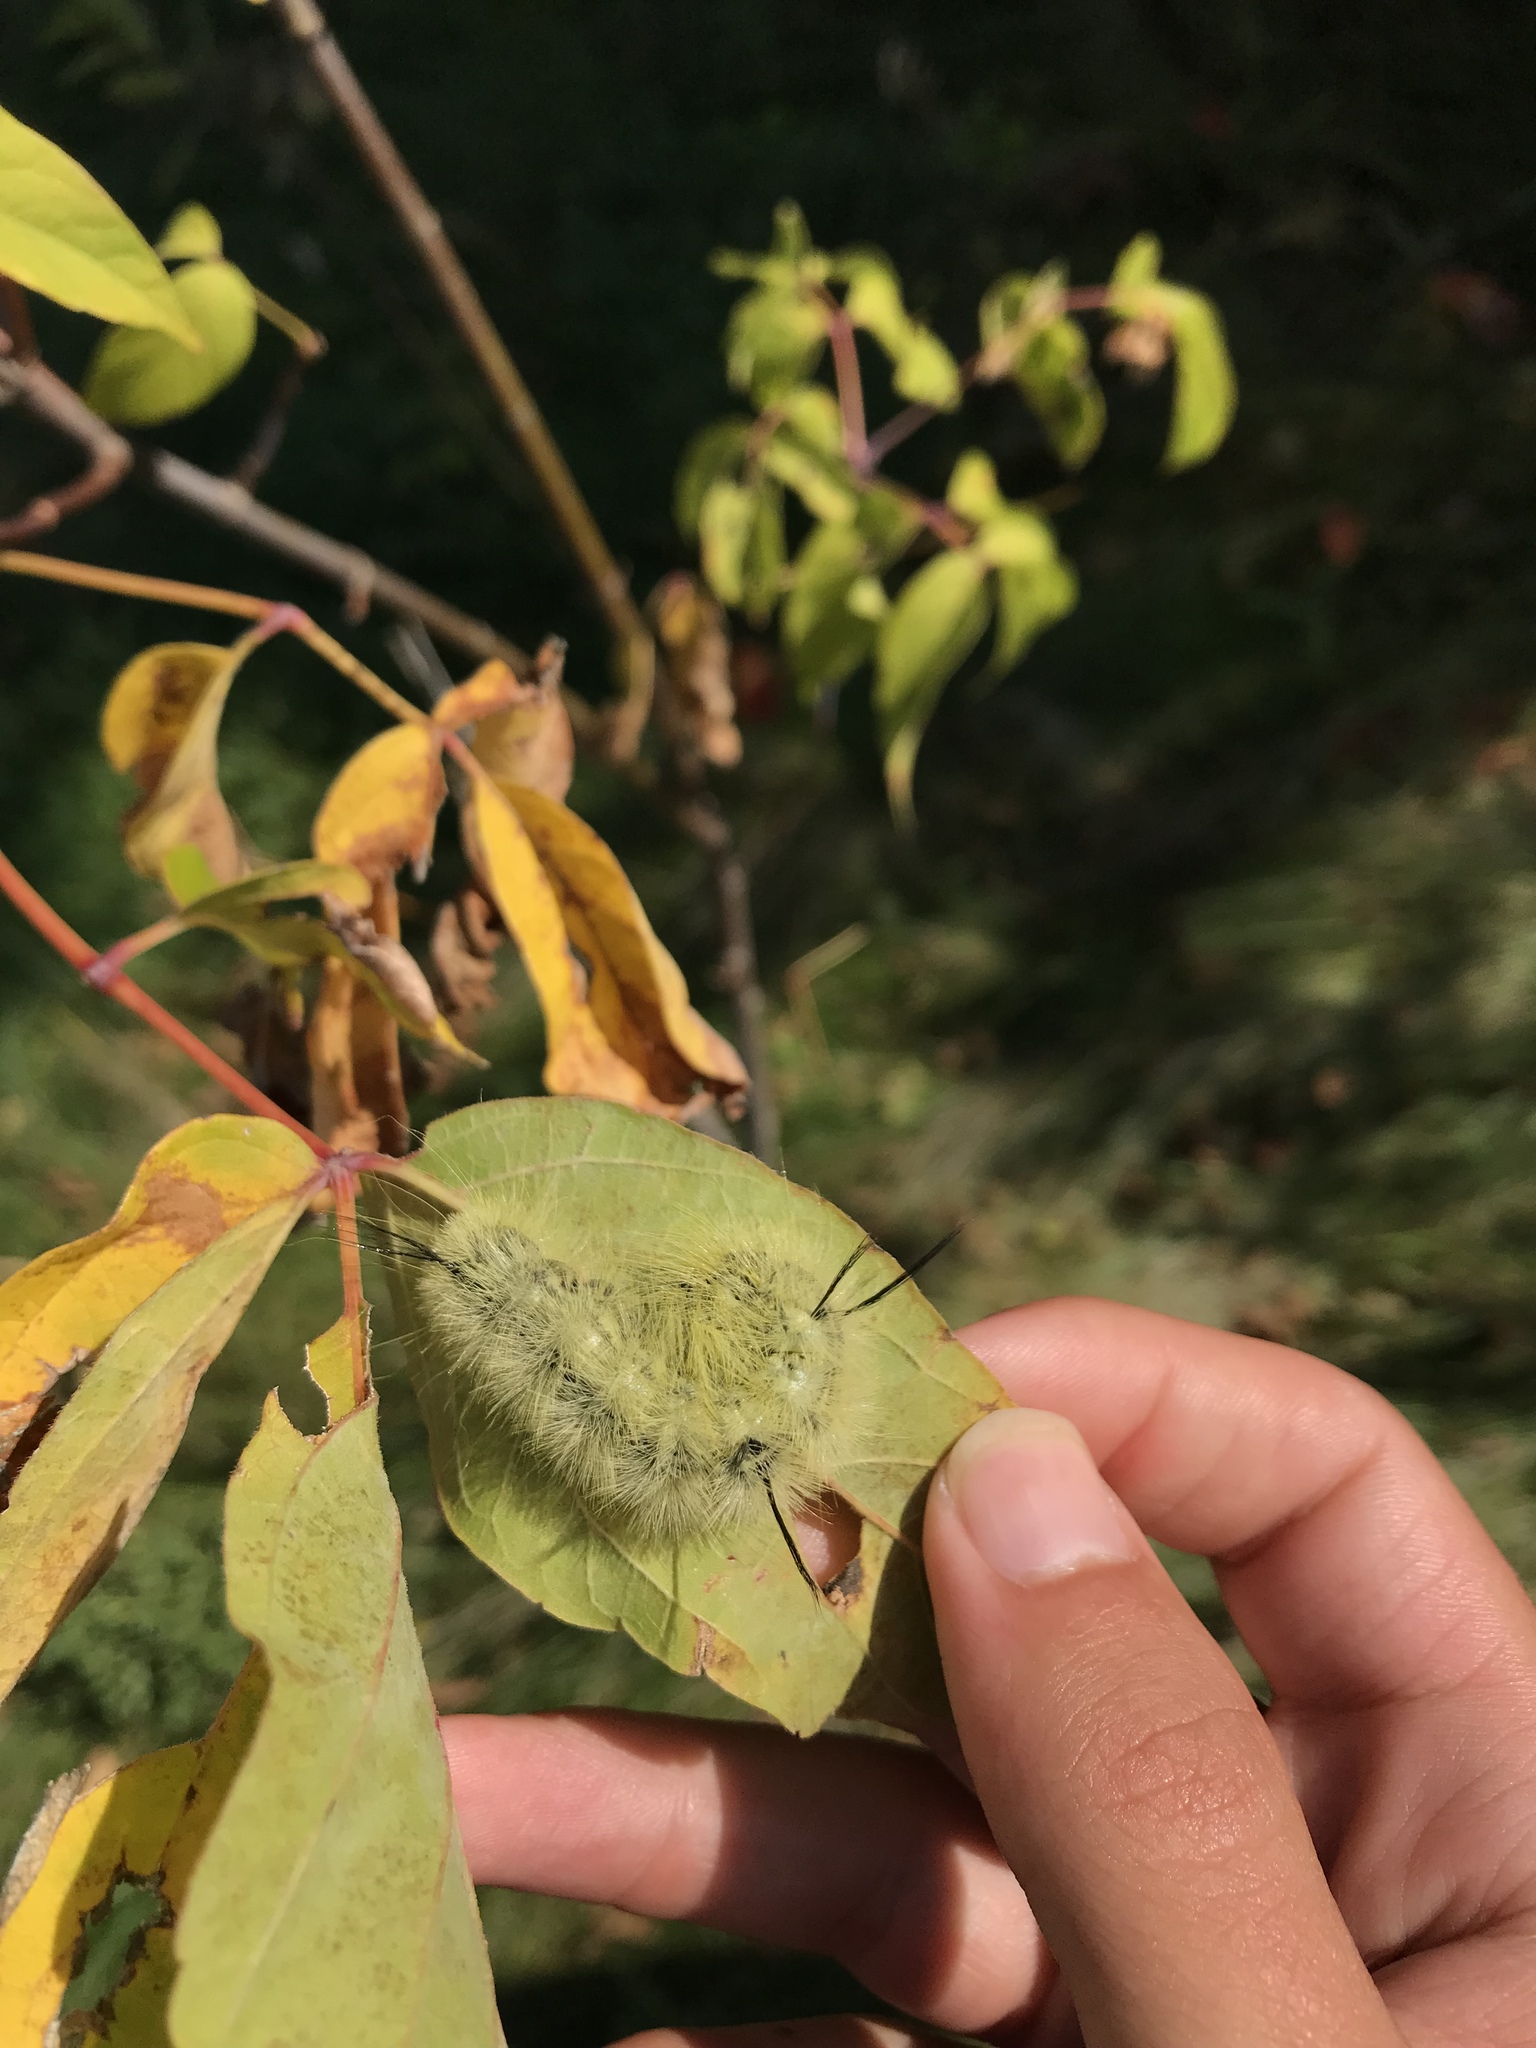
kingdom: Animalia
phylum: Arthropoda
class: Insecta
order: Lepidoptera
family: Noctuidae
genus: Acronicta
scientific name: Acronicta americana
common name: American dagger
